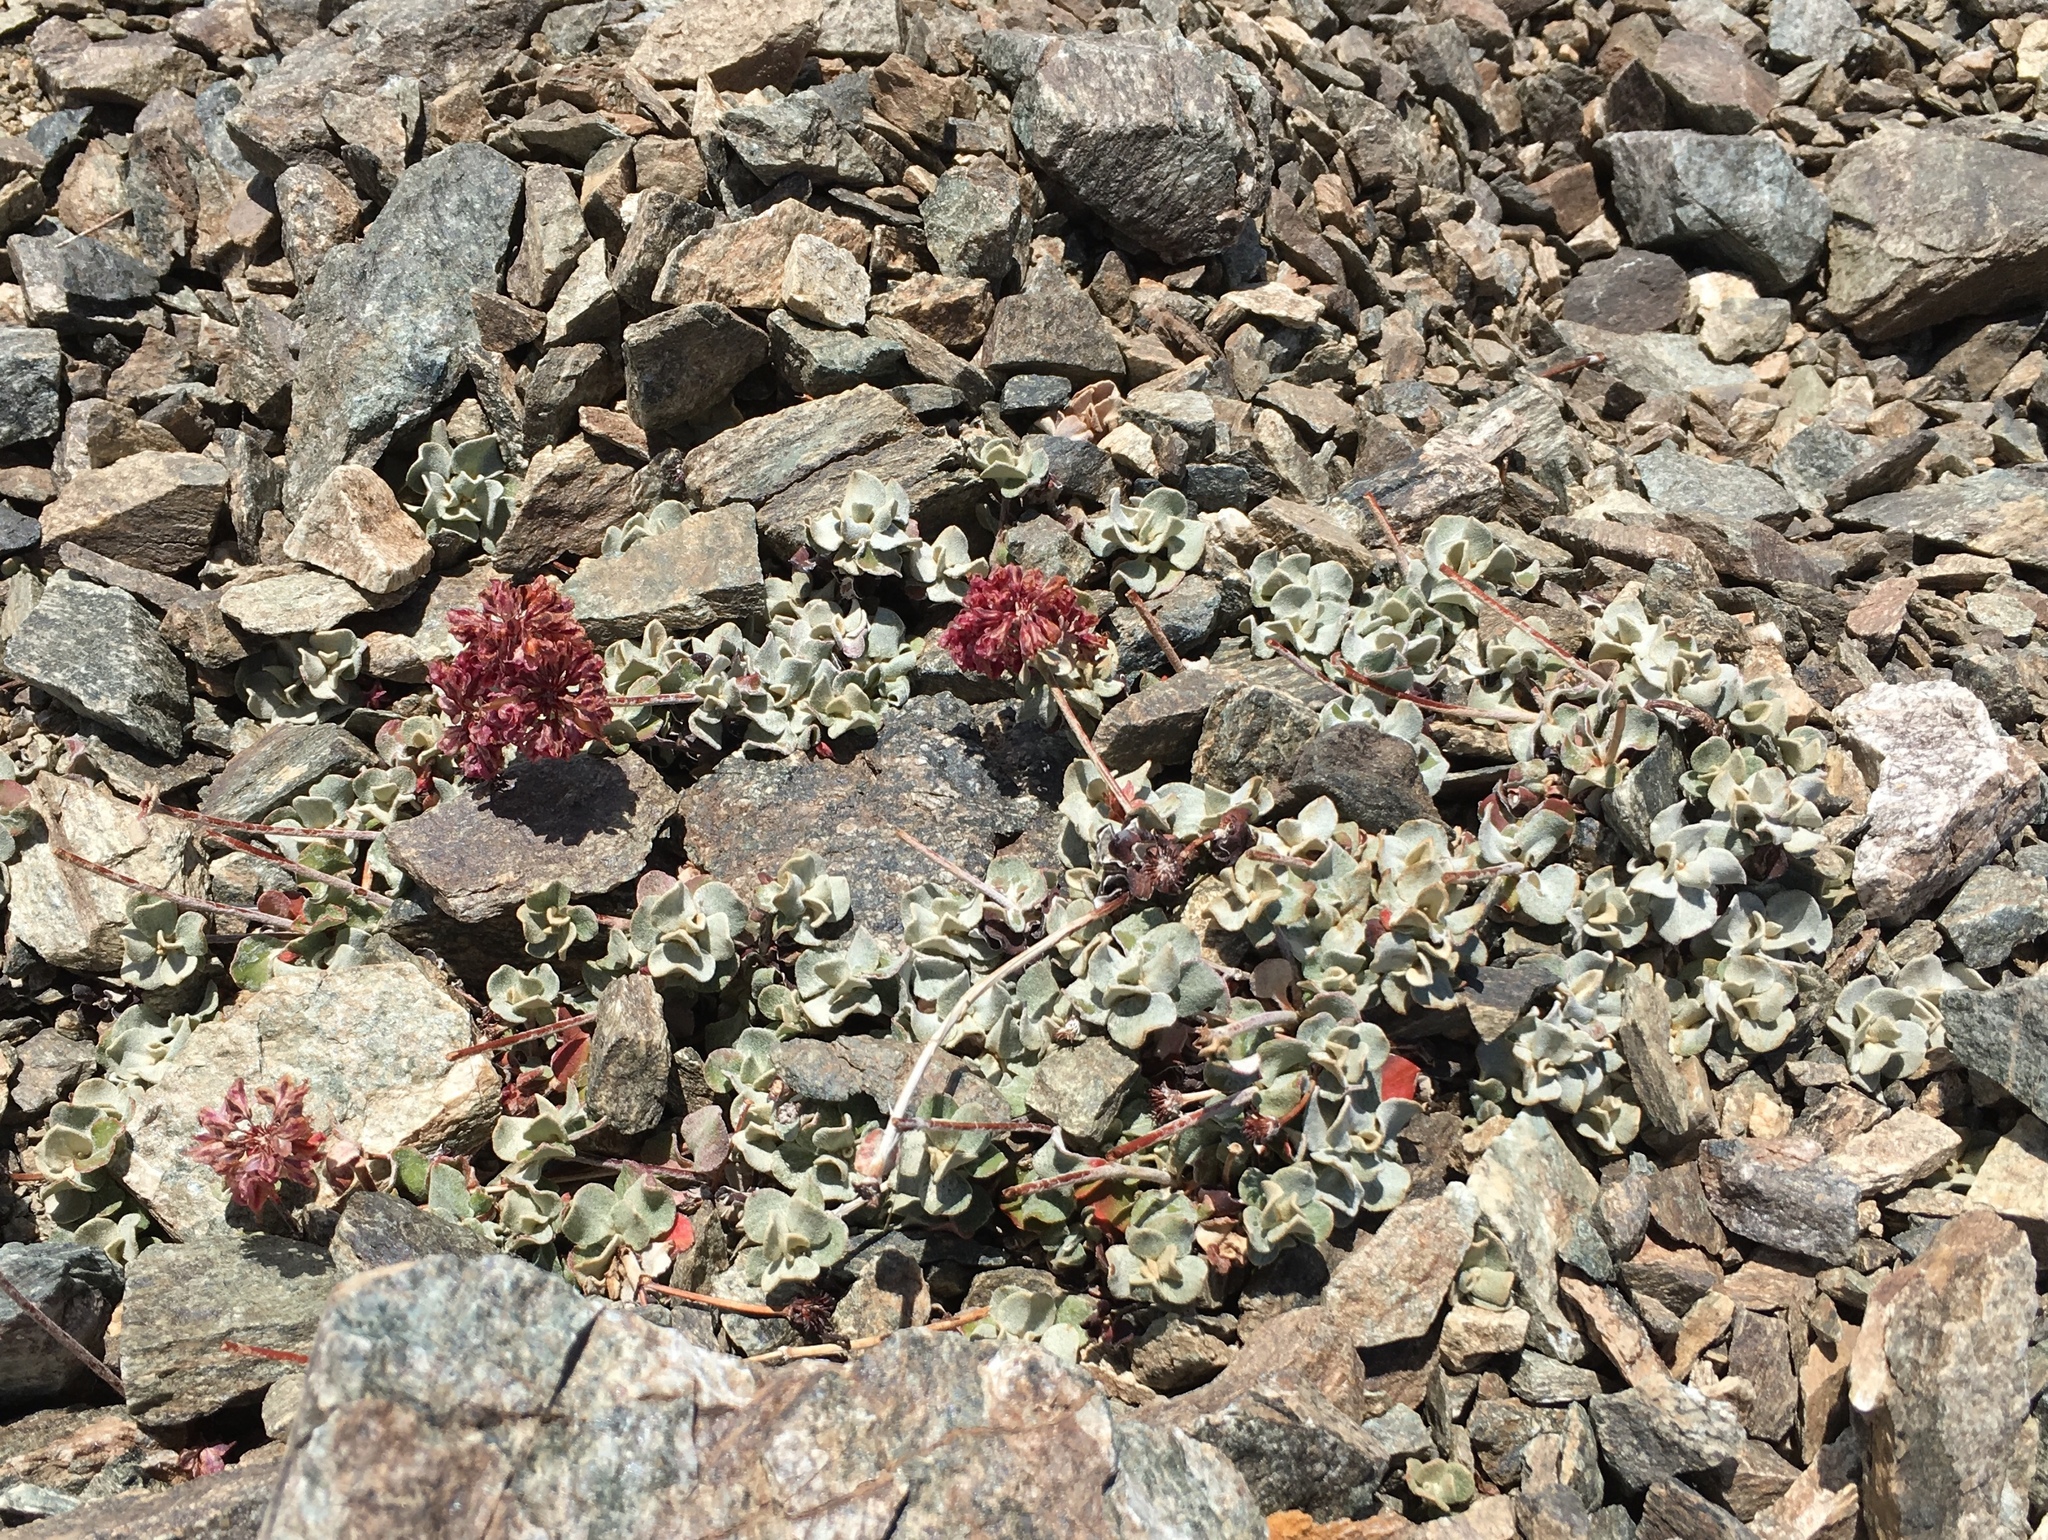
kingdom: Plantae
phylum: Tracheophyta
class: Magnoliopsida
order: Caryophyllales
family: Polygonaceae
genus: Eriogonum
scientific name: Eriogonum umbellatum
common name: Sulfur-buckwheat
